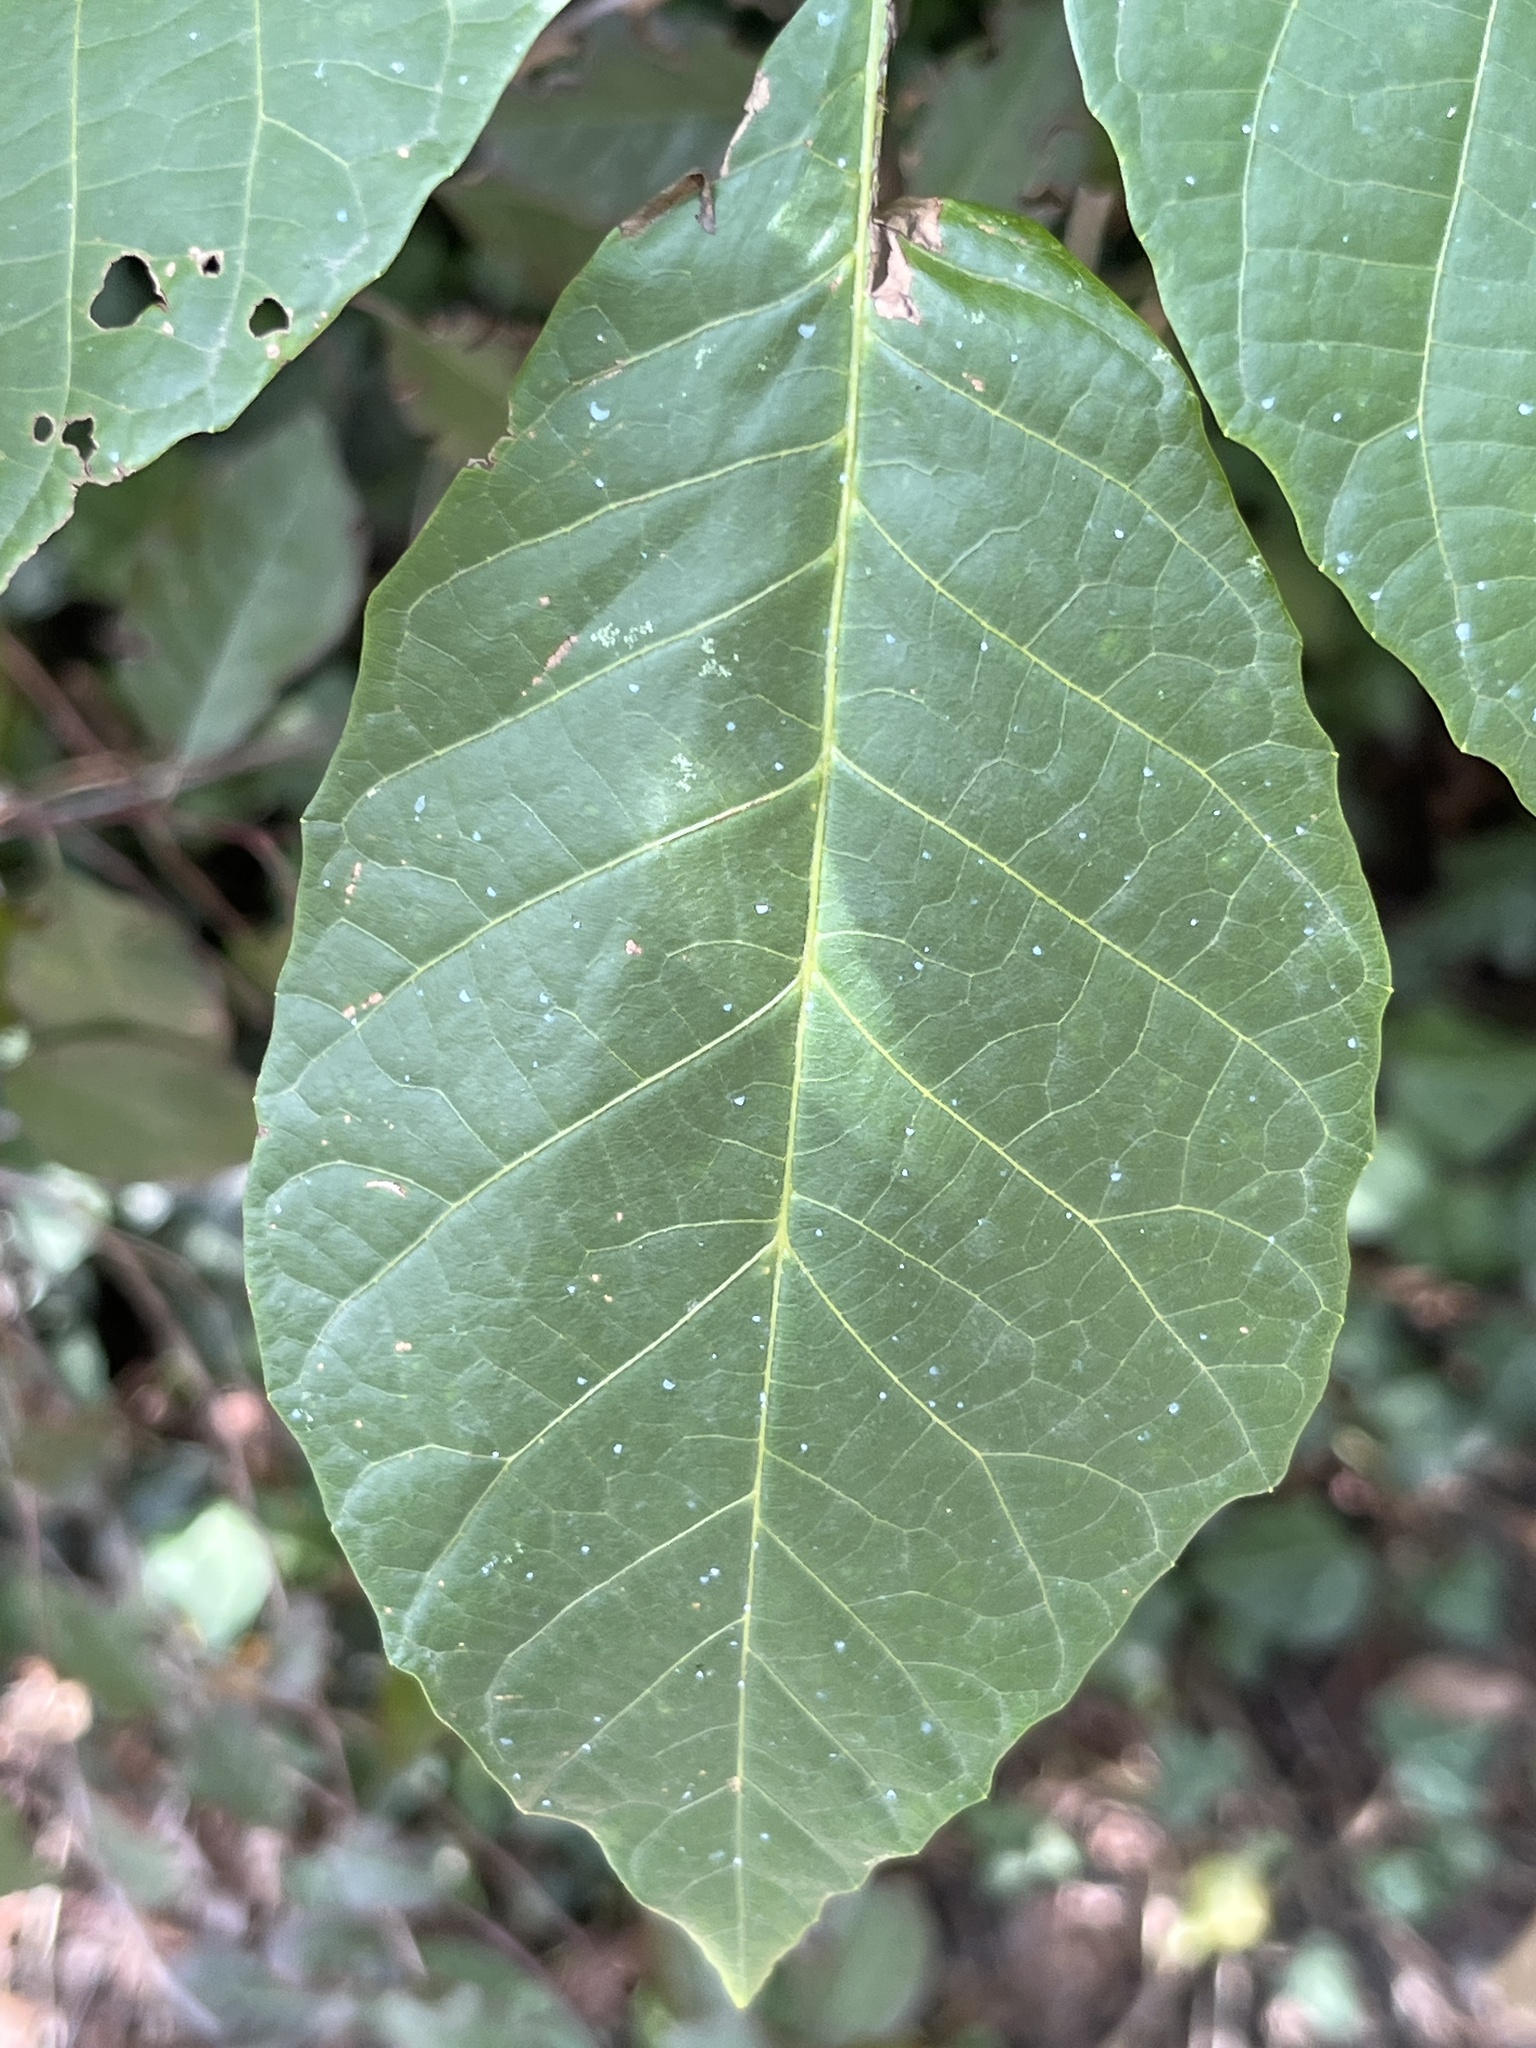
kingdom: Plantae
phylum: Tracheophyta
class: Magnoliopsida
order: Fagales
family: Juglandaceae
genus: Juglans
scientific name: Juglans regia
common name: Walnut
